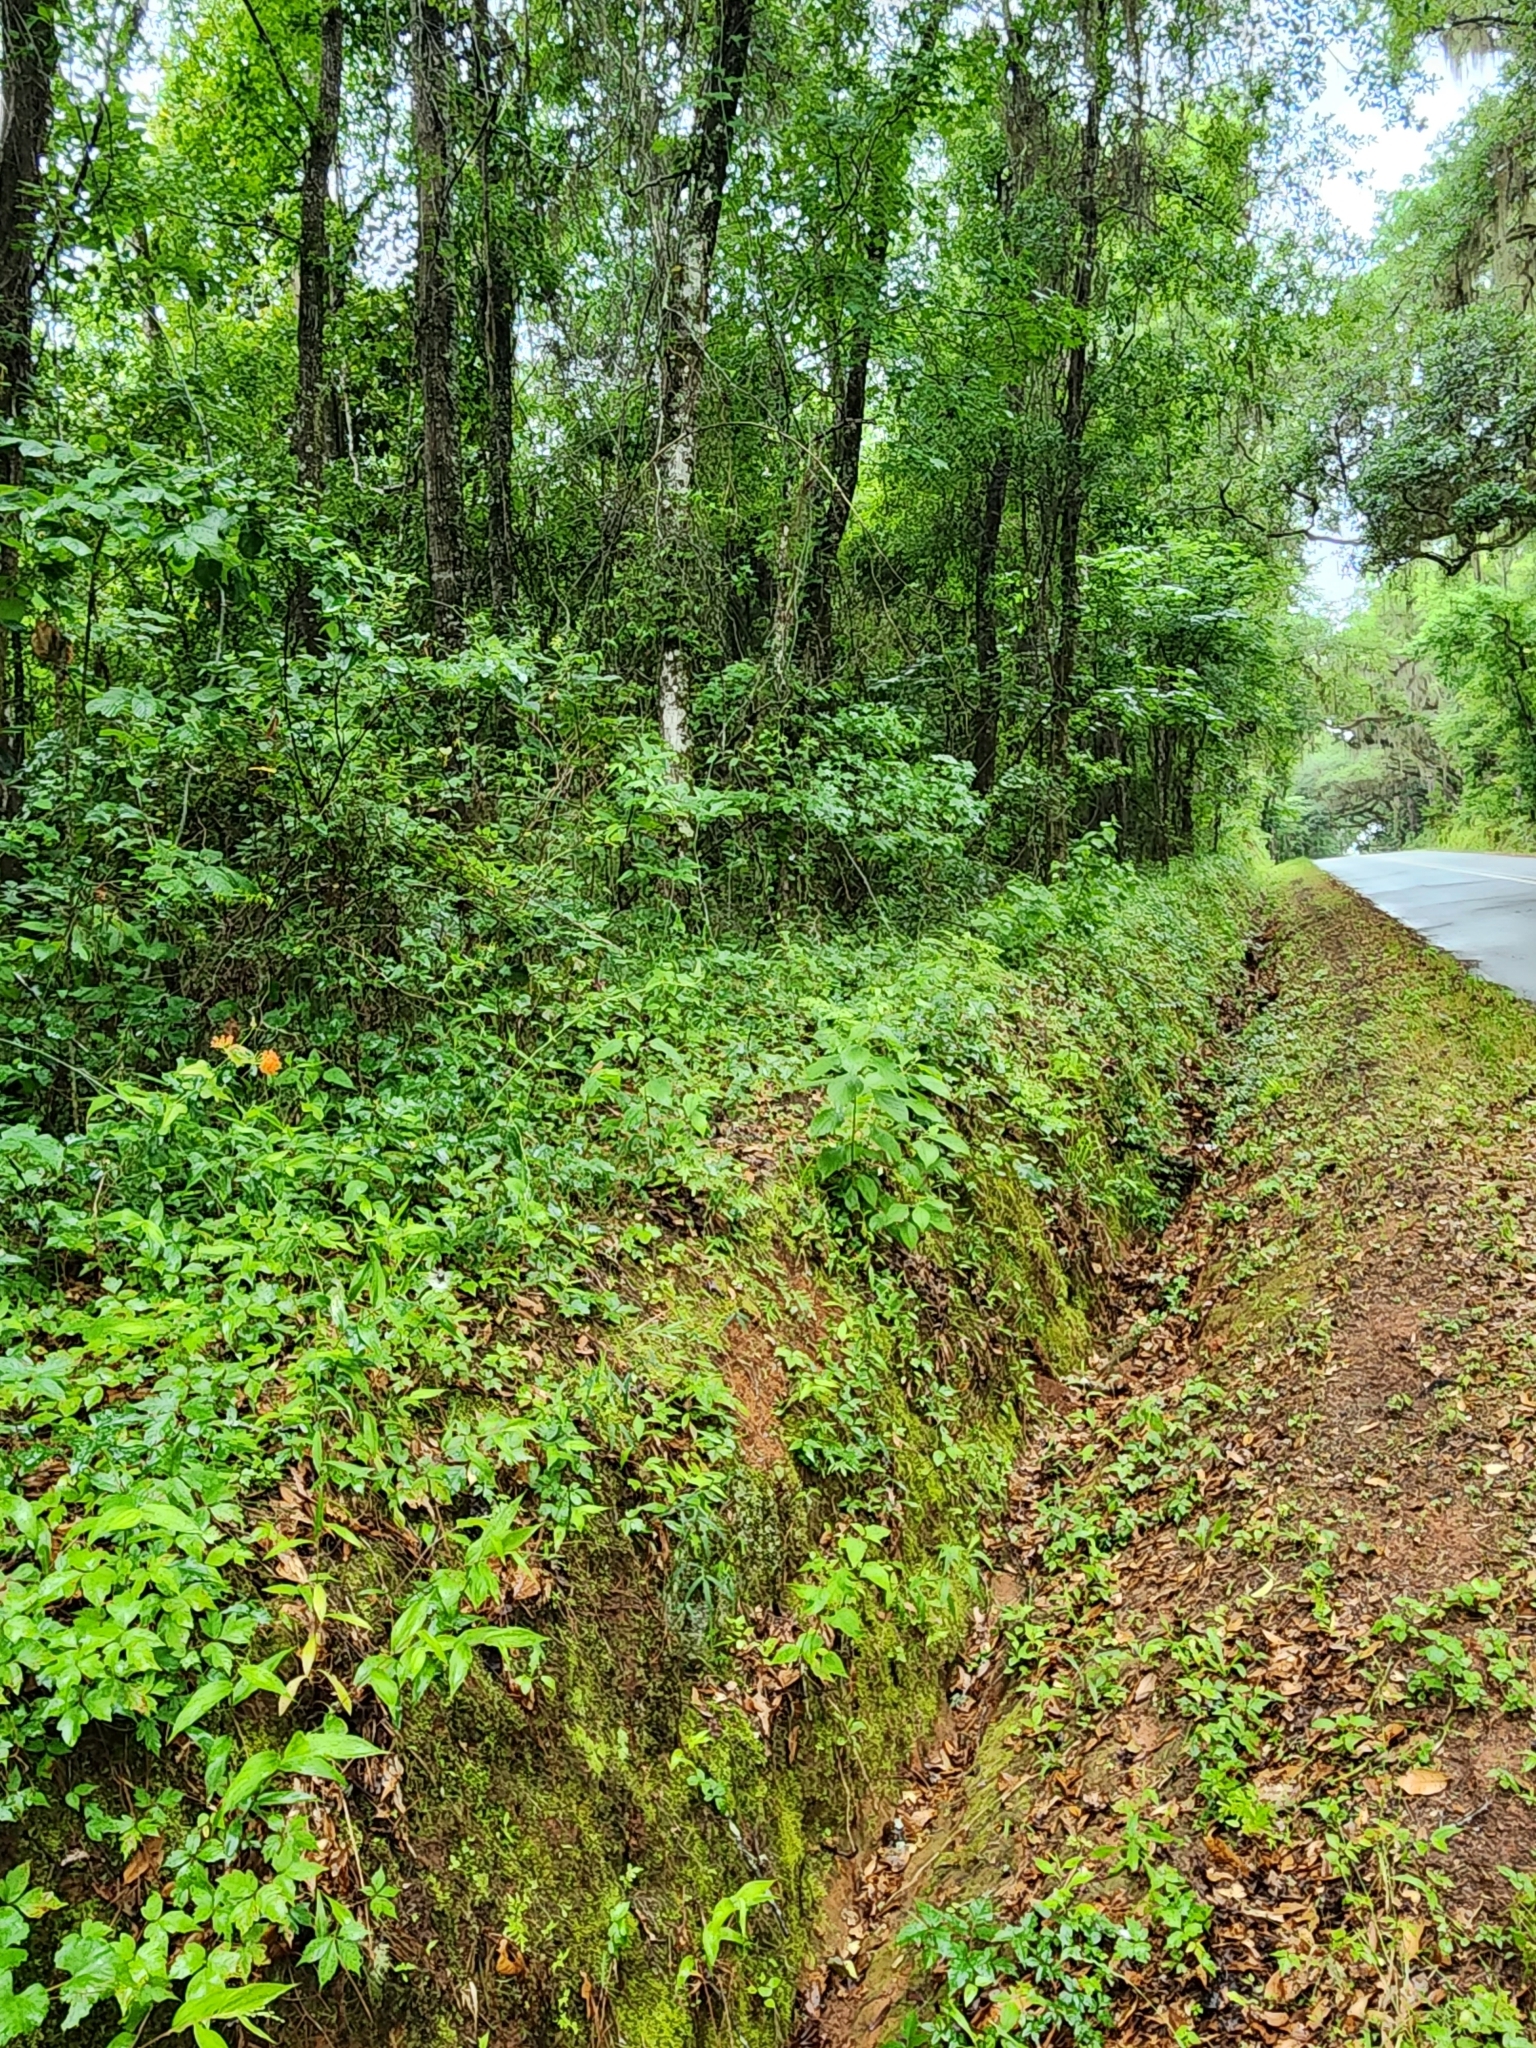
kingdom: Plantae
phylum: Tracheophyta
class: Magnoliopsida
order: Gentianales
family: Apocynaceae
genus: Asclepias
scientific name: Asclepias tuberosa
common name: Butterfly milkweed
